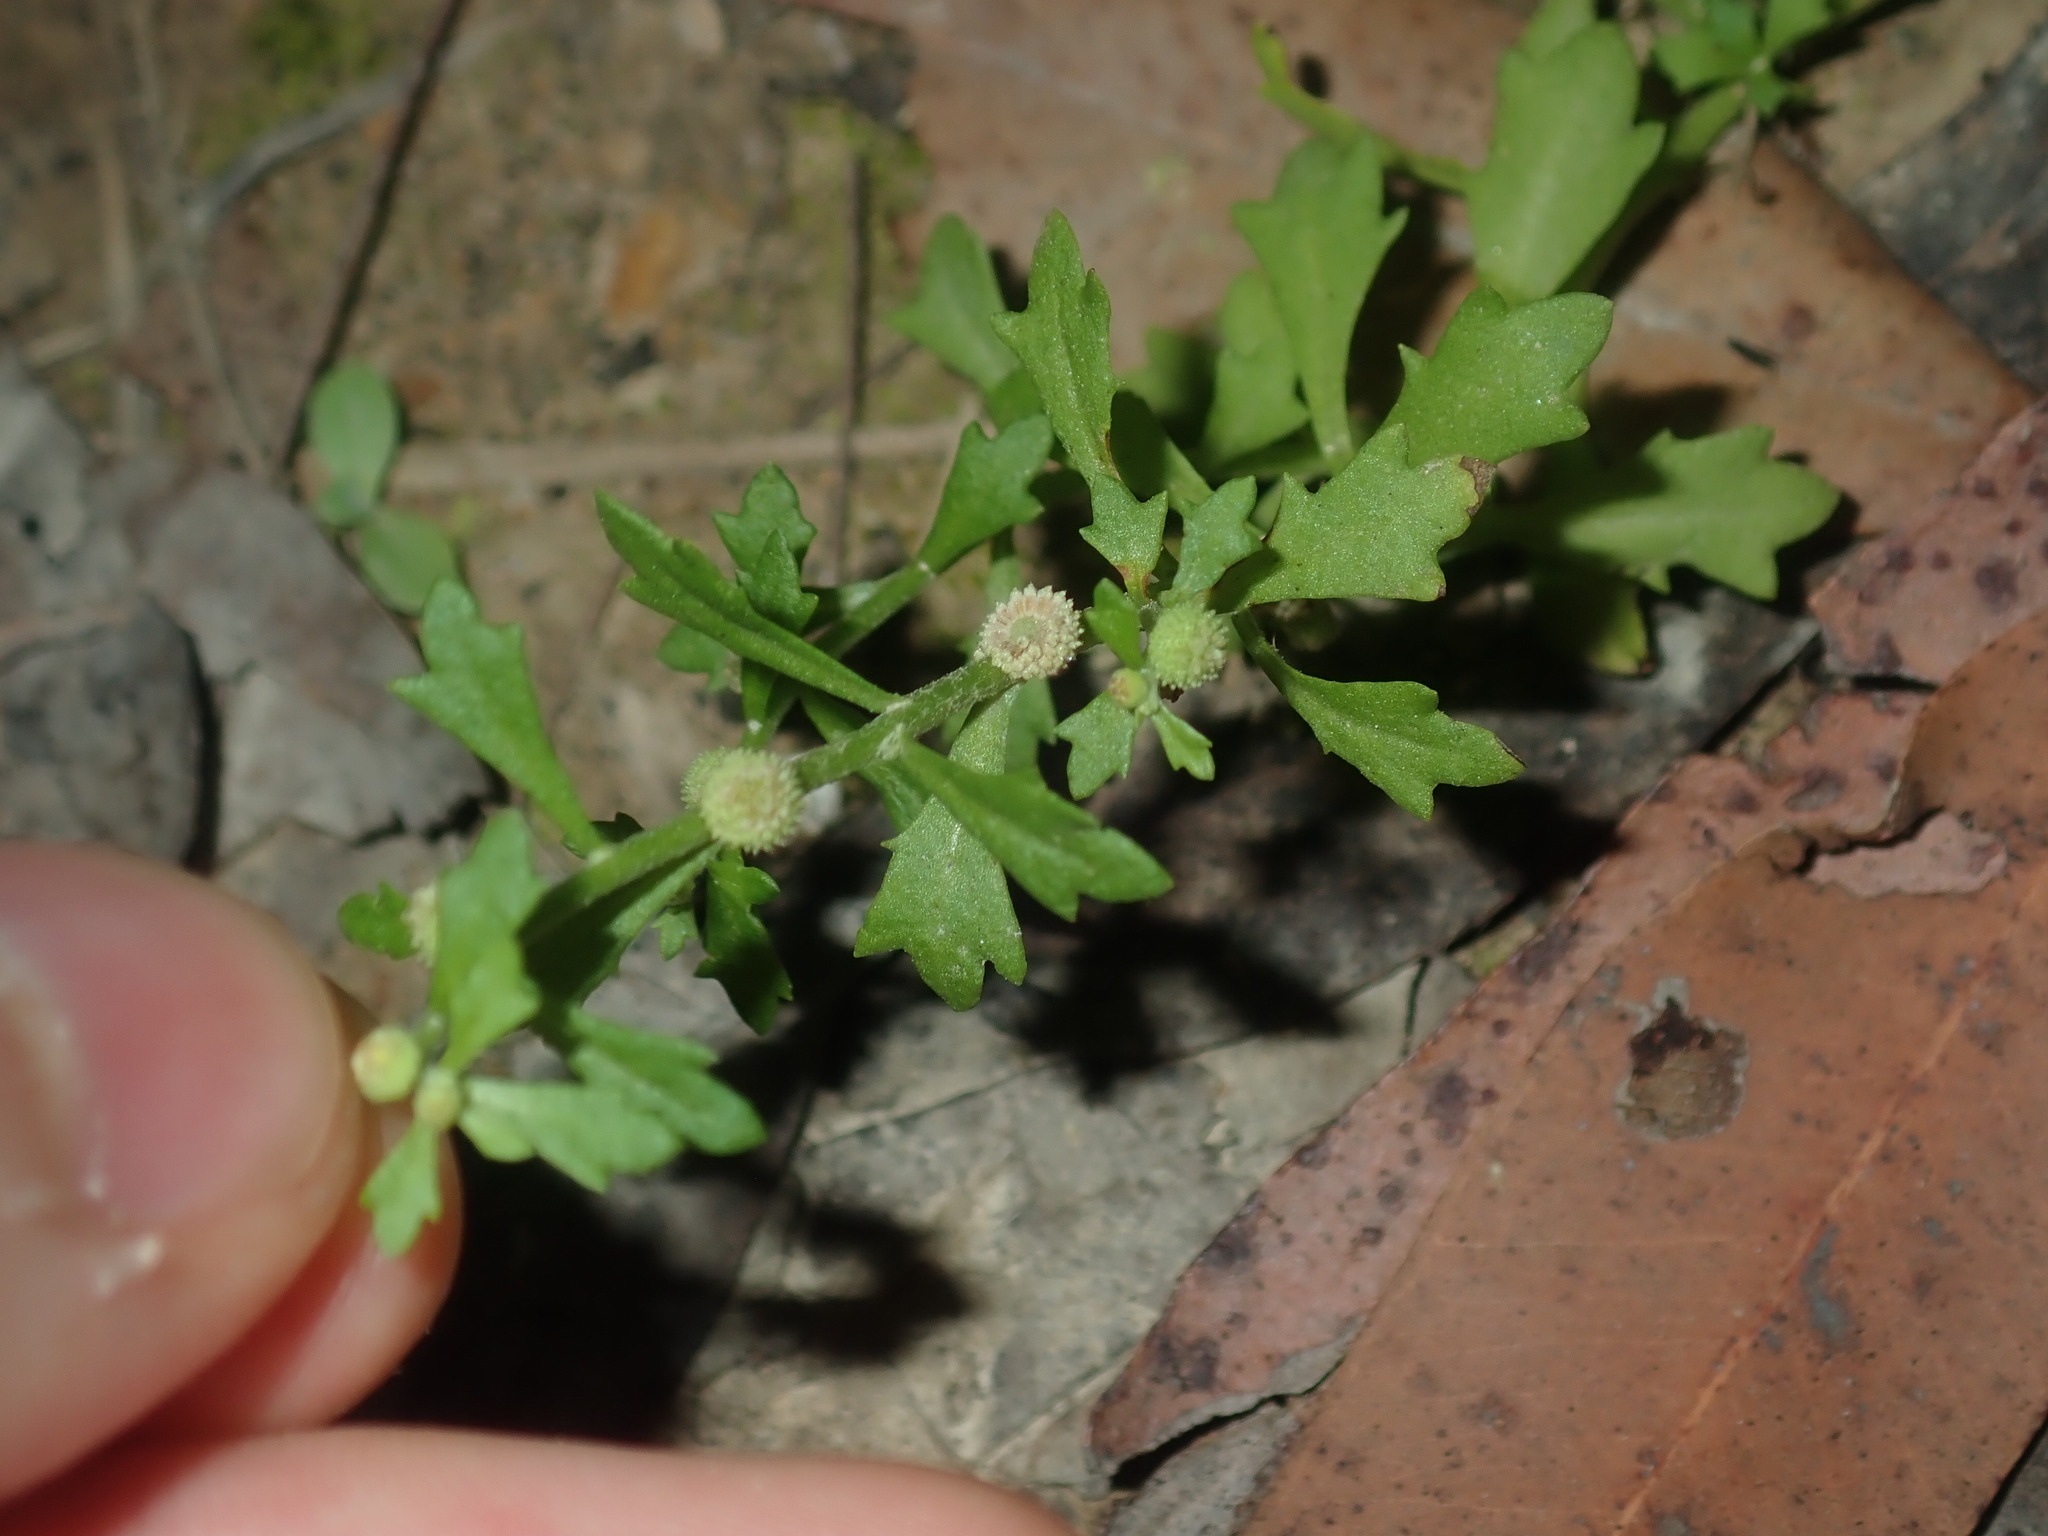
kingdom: Plantae
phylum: Tracheophyta
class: Magnoliopsida
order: Asterales
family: Asteraceae
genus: Centipeda
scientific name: Centipeda minima
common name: Spreading sneezeweed
